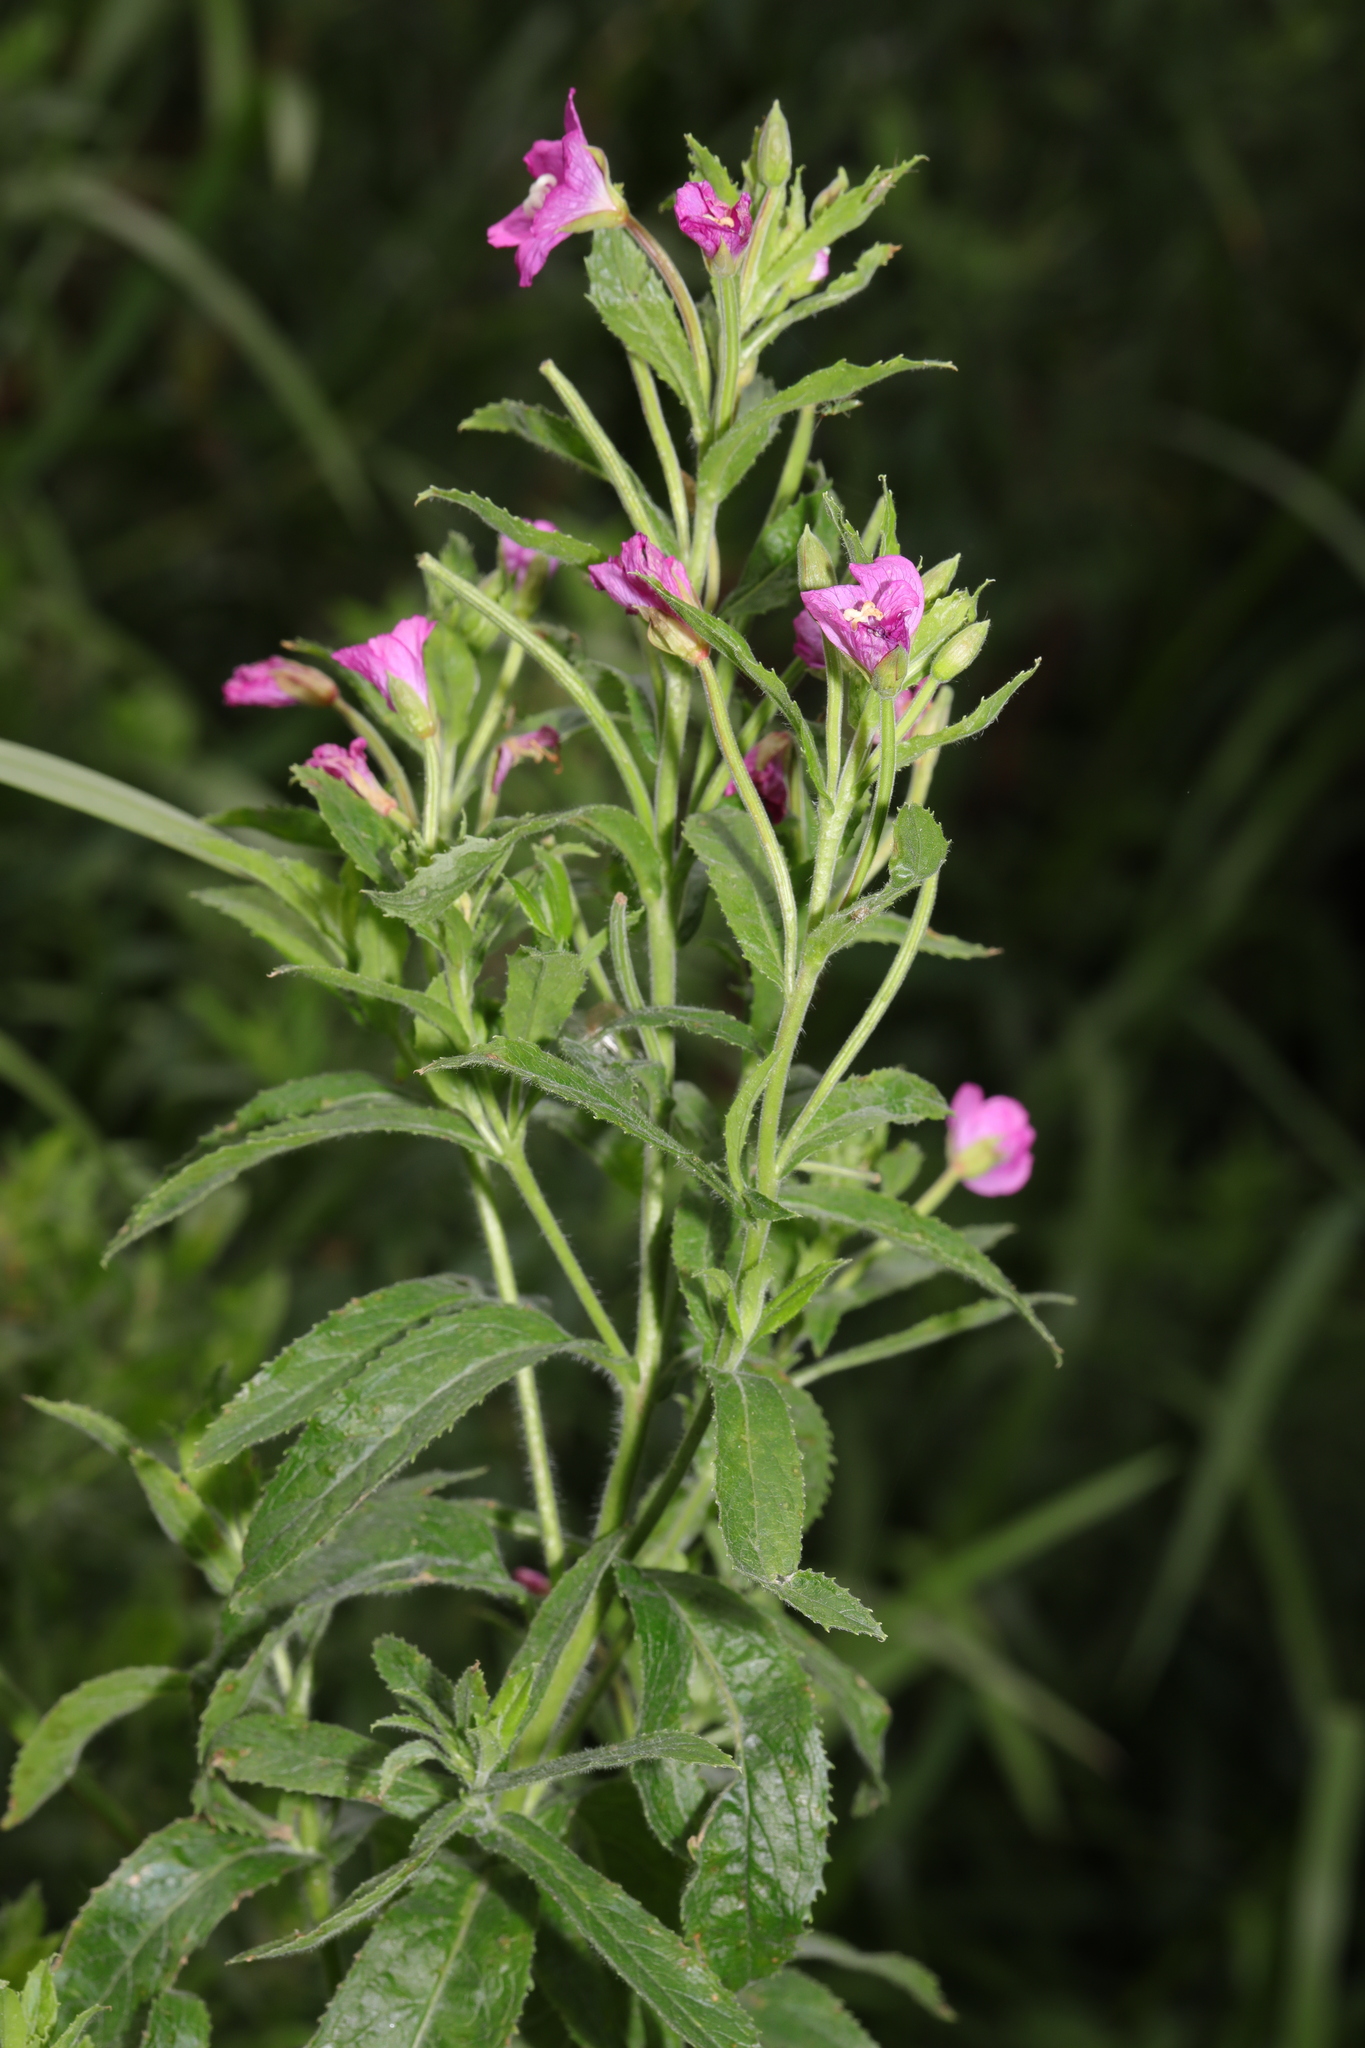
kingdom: Plantae
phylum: Tracheophyta
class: Magnoliopsida
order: Myrtales
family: Onagraceae
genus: Epilobium
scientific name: Epilobium hirsutum
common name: Great willowherb
